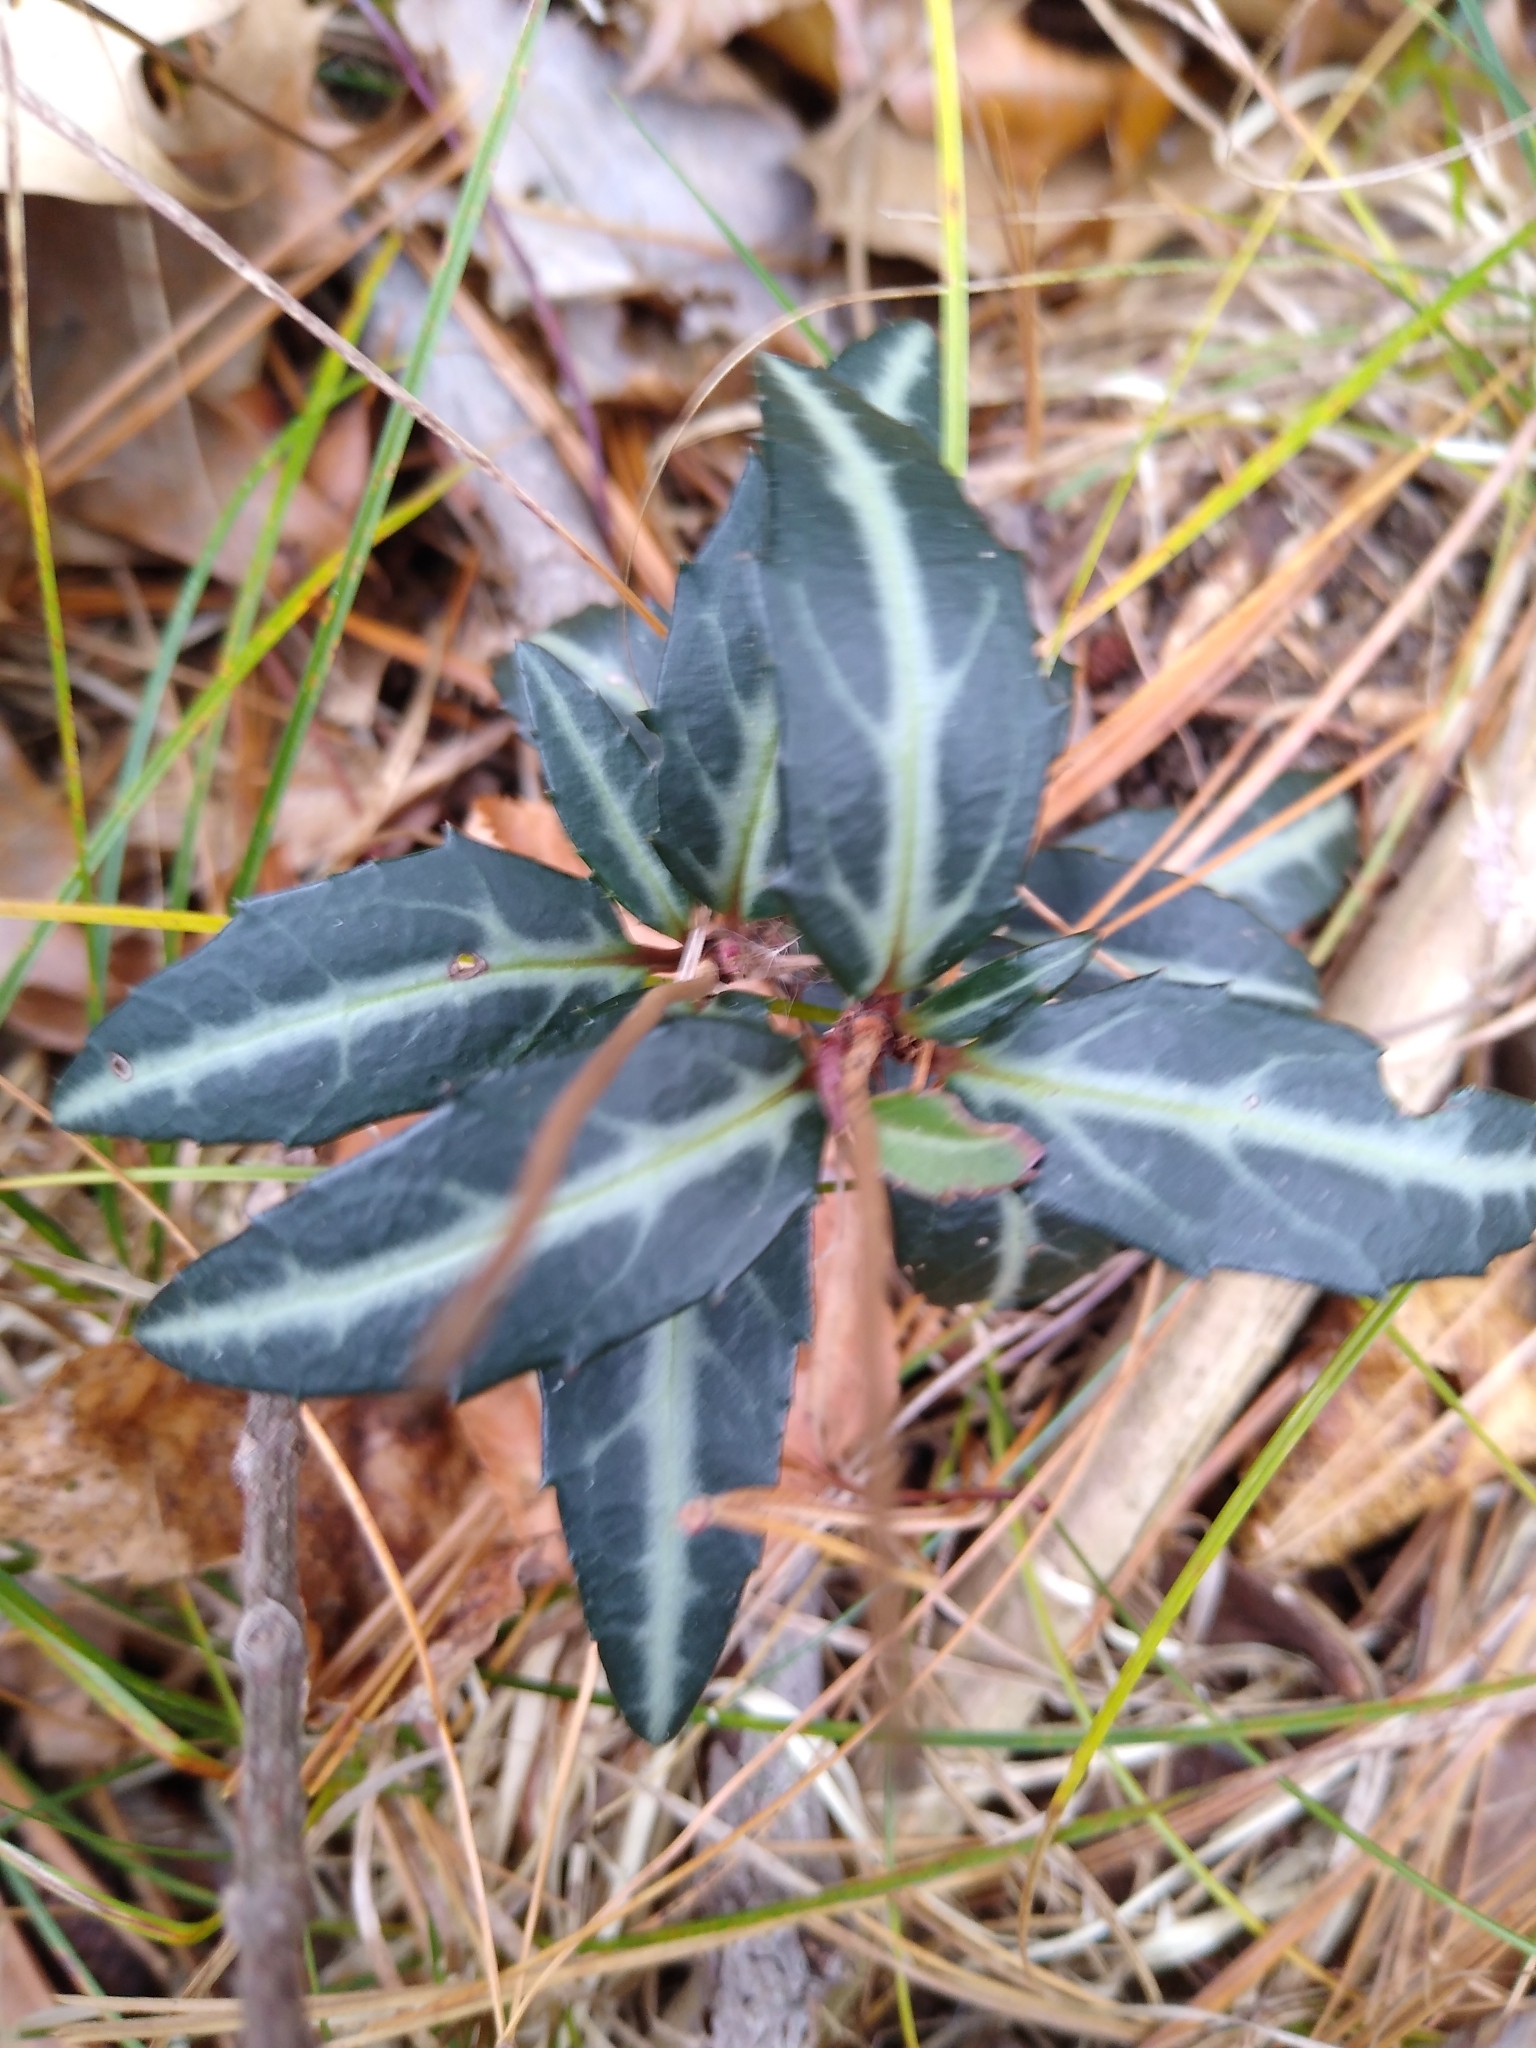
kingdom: Plantae
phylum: Tracheophyta
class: Magnoliopsida
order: Ericales
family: Ericaceae
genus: Chimaphila
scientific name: Chimaphila maculata
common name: Spotted pipsissewa
